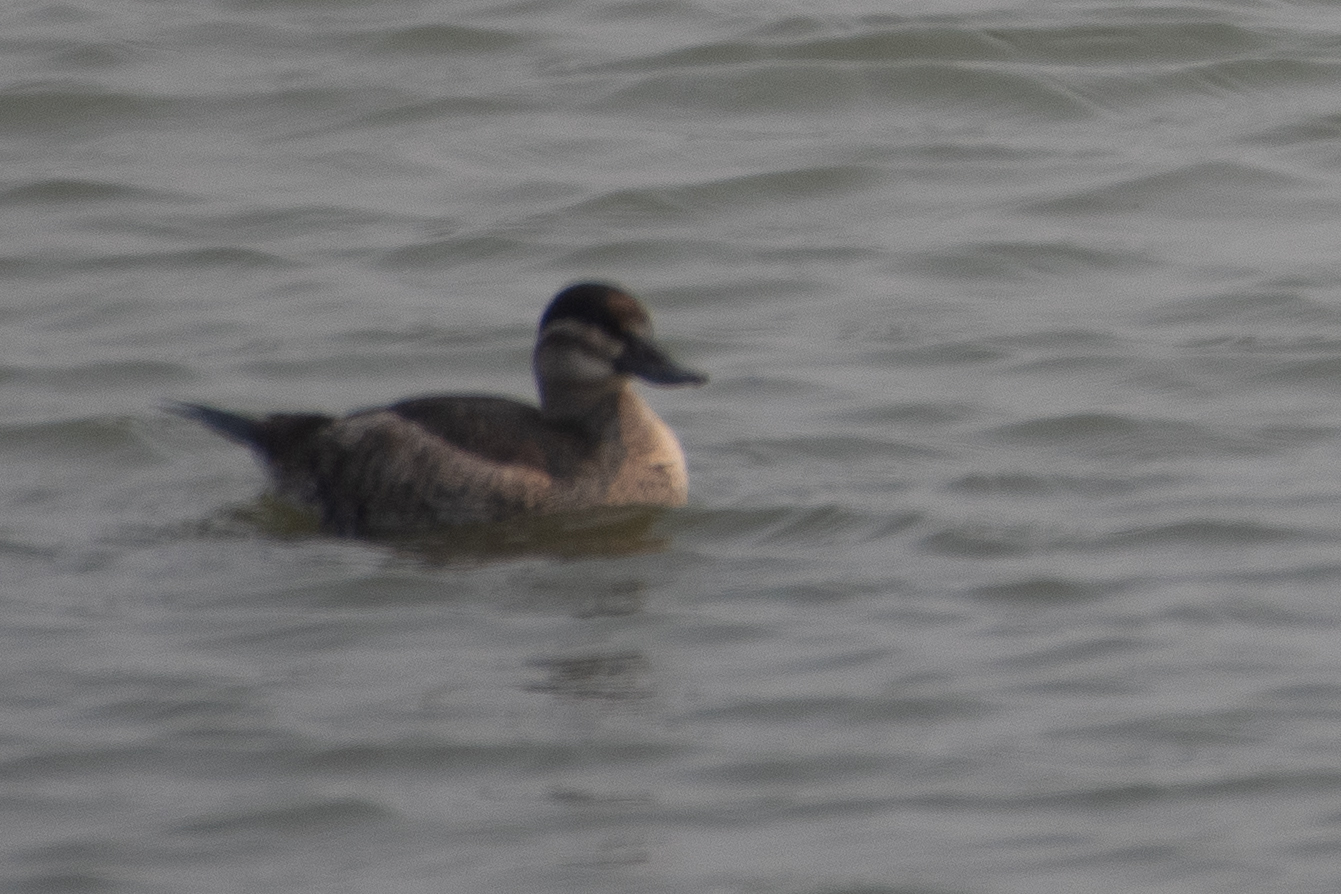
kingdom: Animalia
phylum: Chordata
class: Aves
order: Anseriformes
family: Anatidae
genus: Oxyura
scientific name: Oxyura jamaicensis
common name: Ruddy duck
